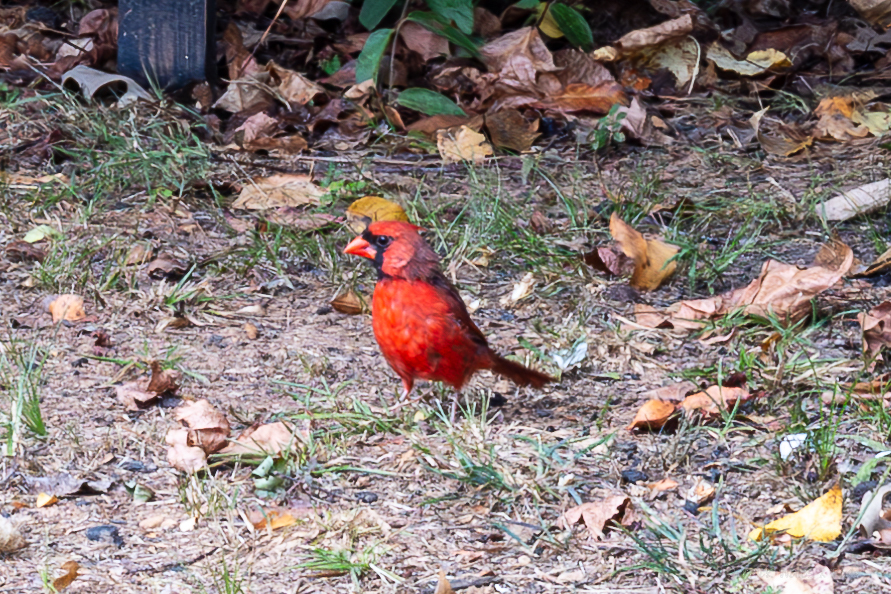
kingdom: Animalia
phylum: Chordata
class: Aves
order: Passeriformes
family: Cardinalidae
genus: Cardinalis
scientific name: Cardinalis cardinalis
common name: Northern cardinal
